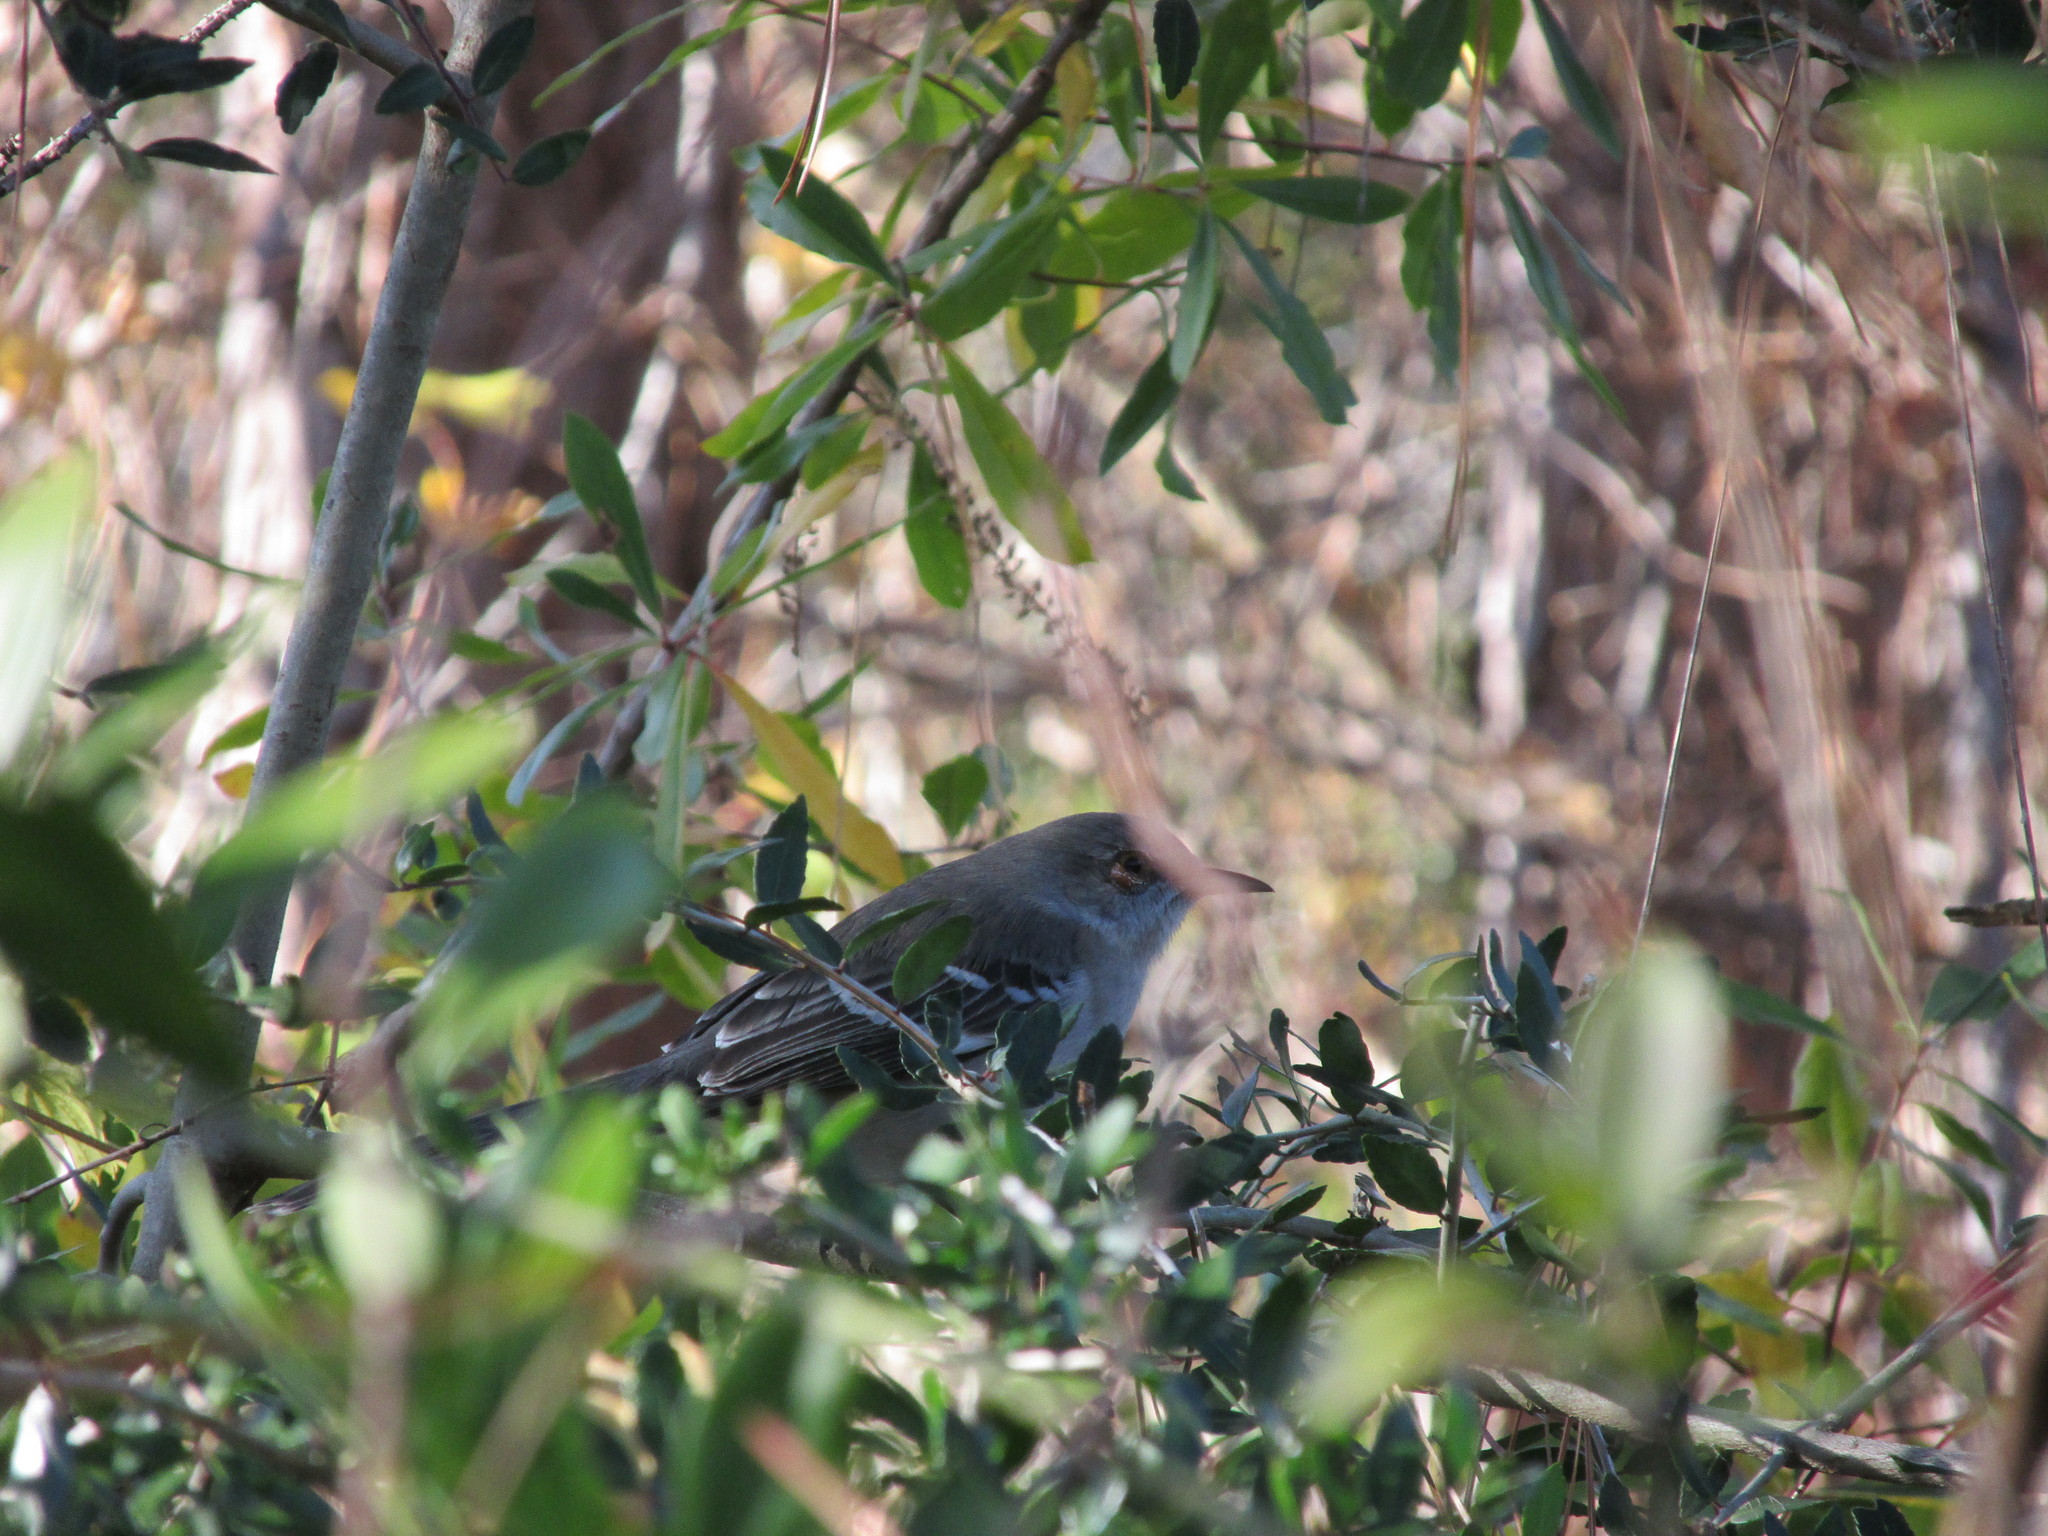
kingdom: Animalia
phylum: Chordata
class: Aves
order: Passeriformes
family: Mimidae
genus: Mimus
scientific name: Mimus polyglottos
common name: Northern mockingbird
